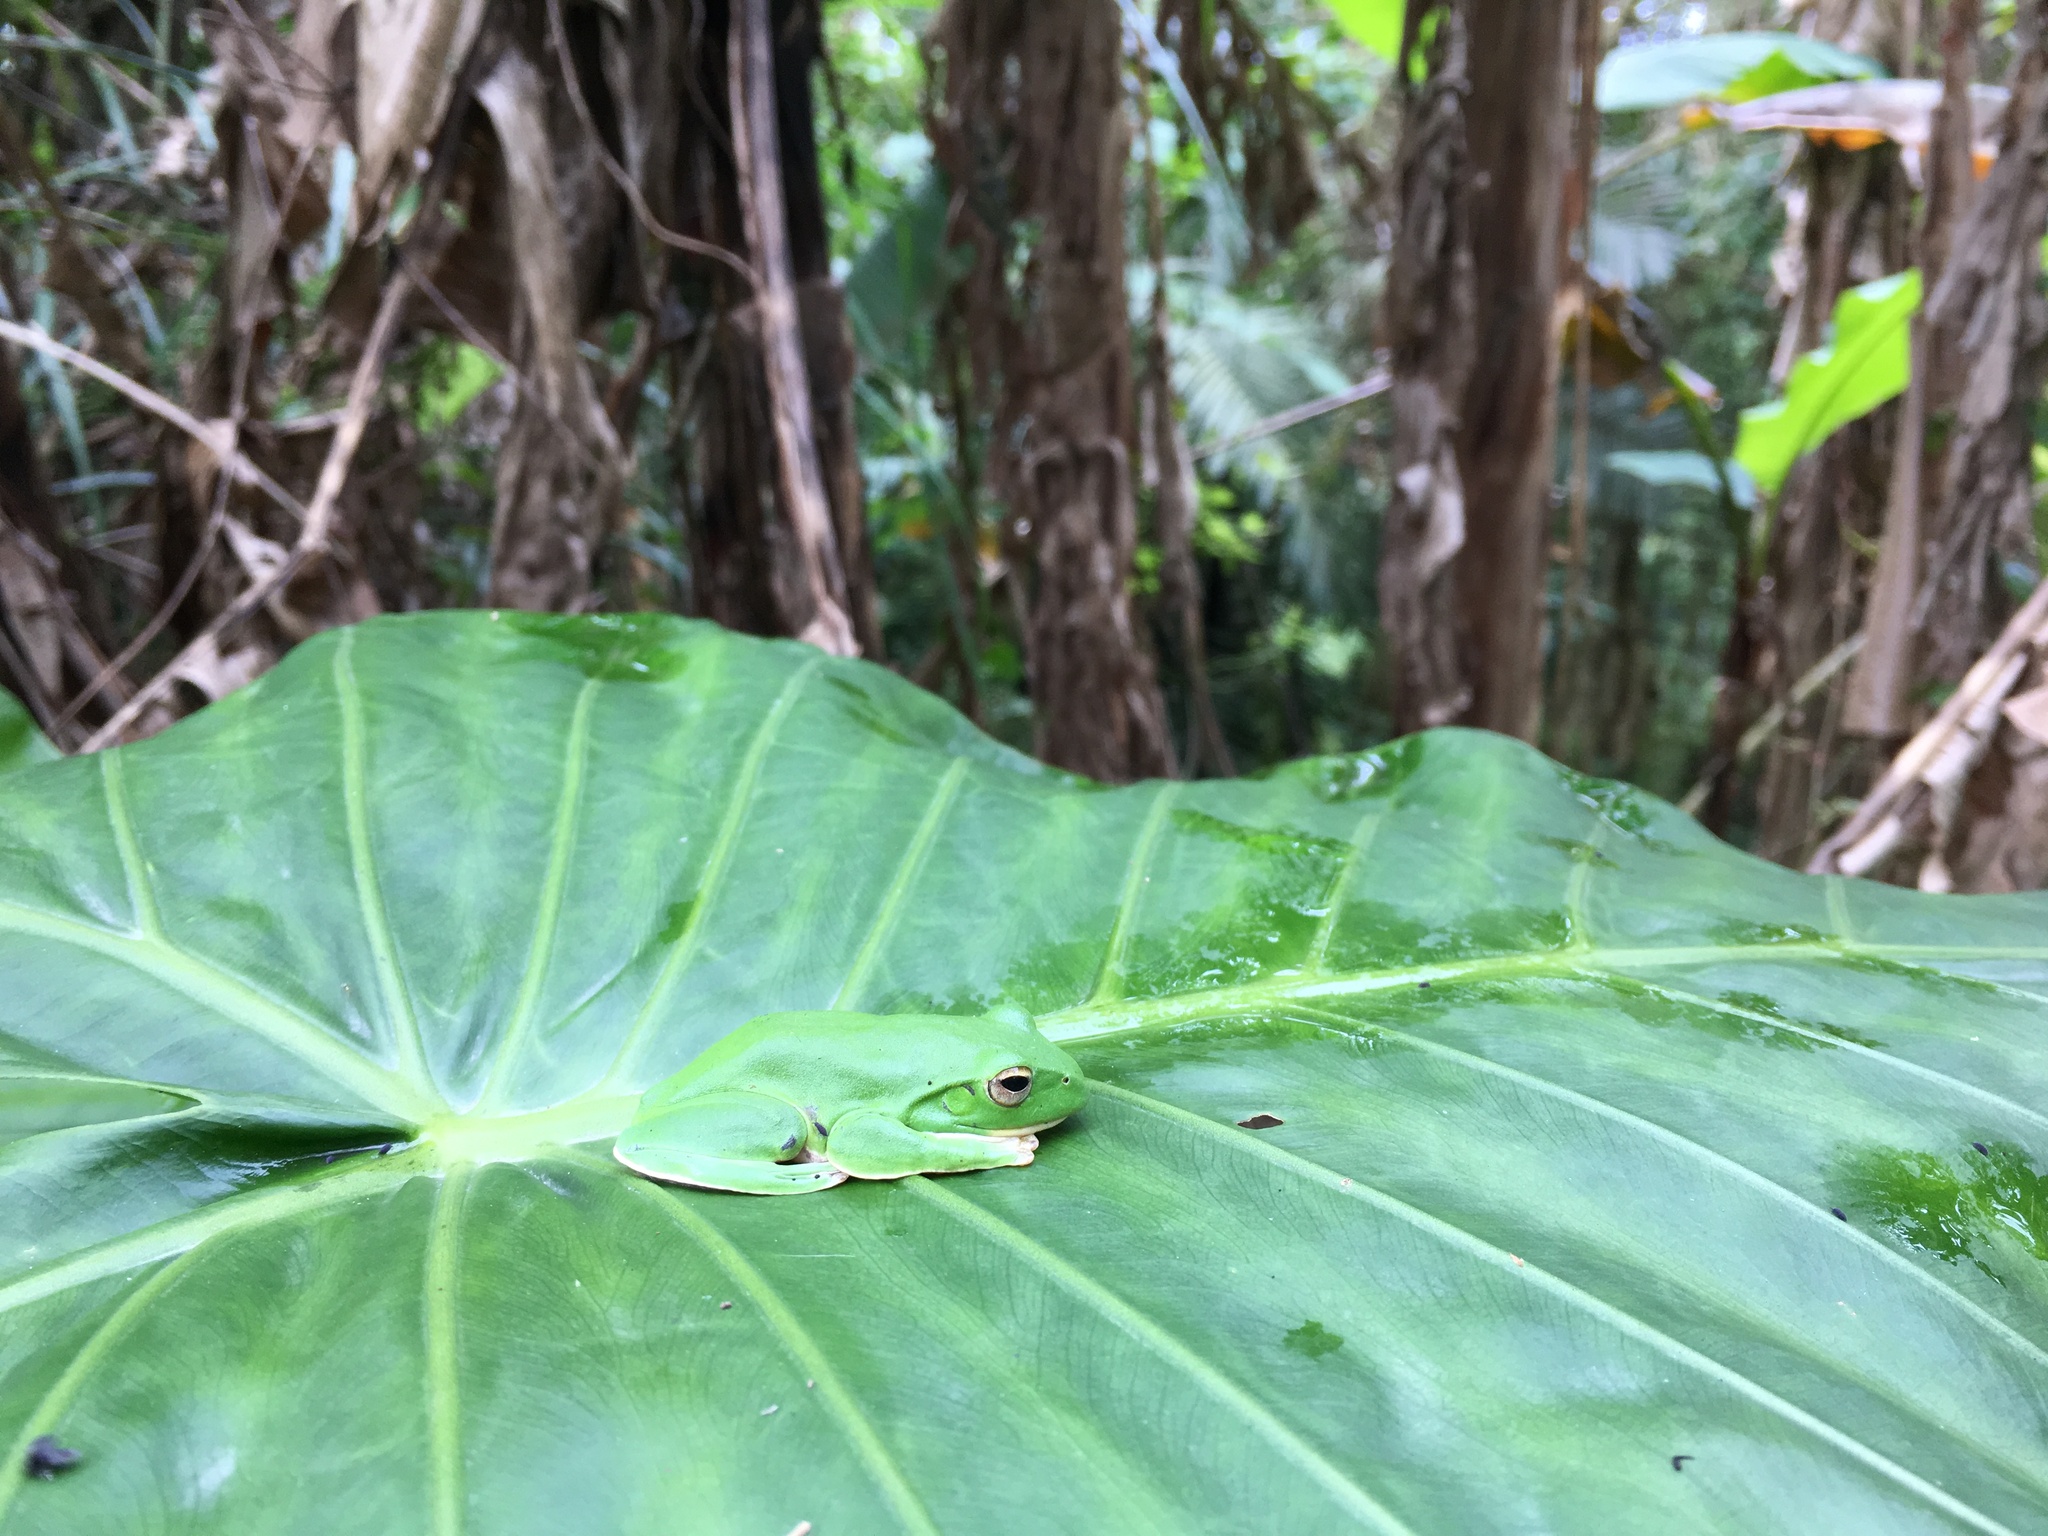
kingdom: Animalia
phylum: Chordata
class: Amphibia
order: Anura
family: Rhacophoridae
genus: Zhangixalus
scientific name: Zhangixalus moltrechti
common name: Moltrecht's treefrog
